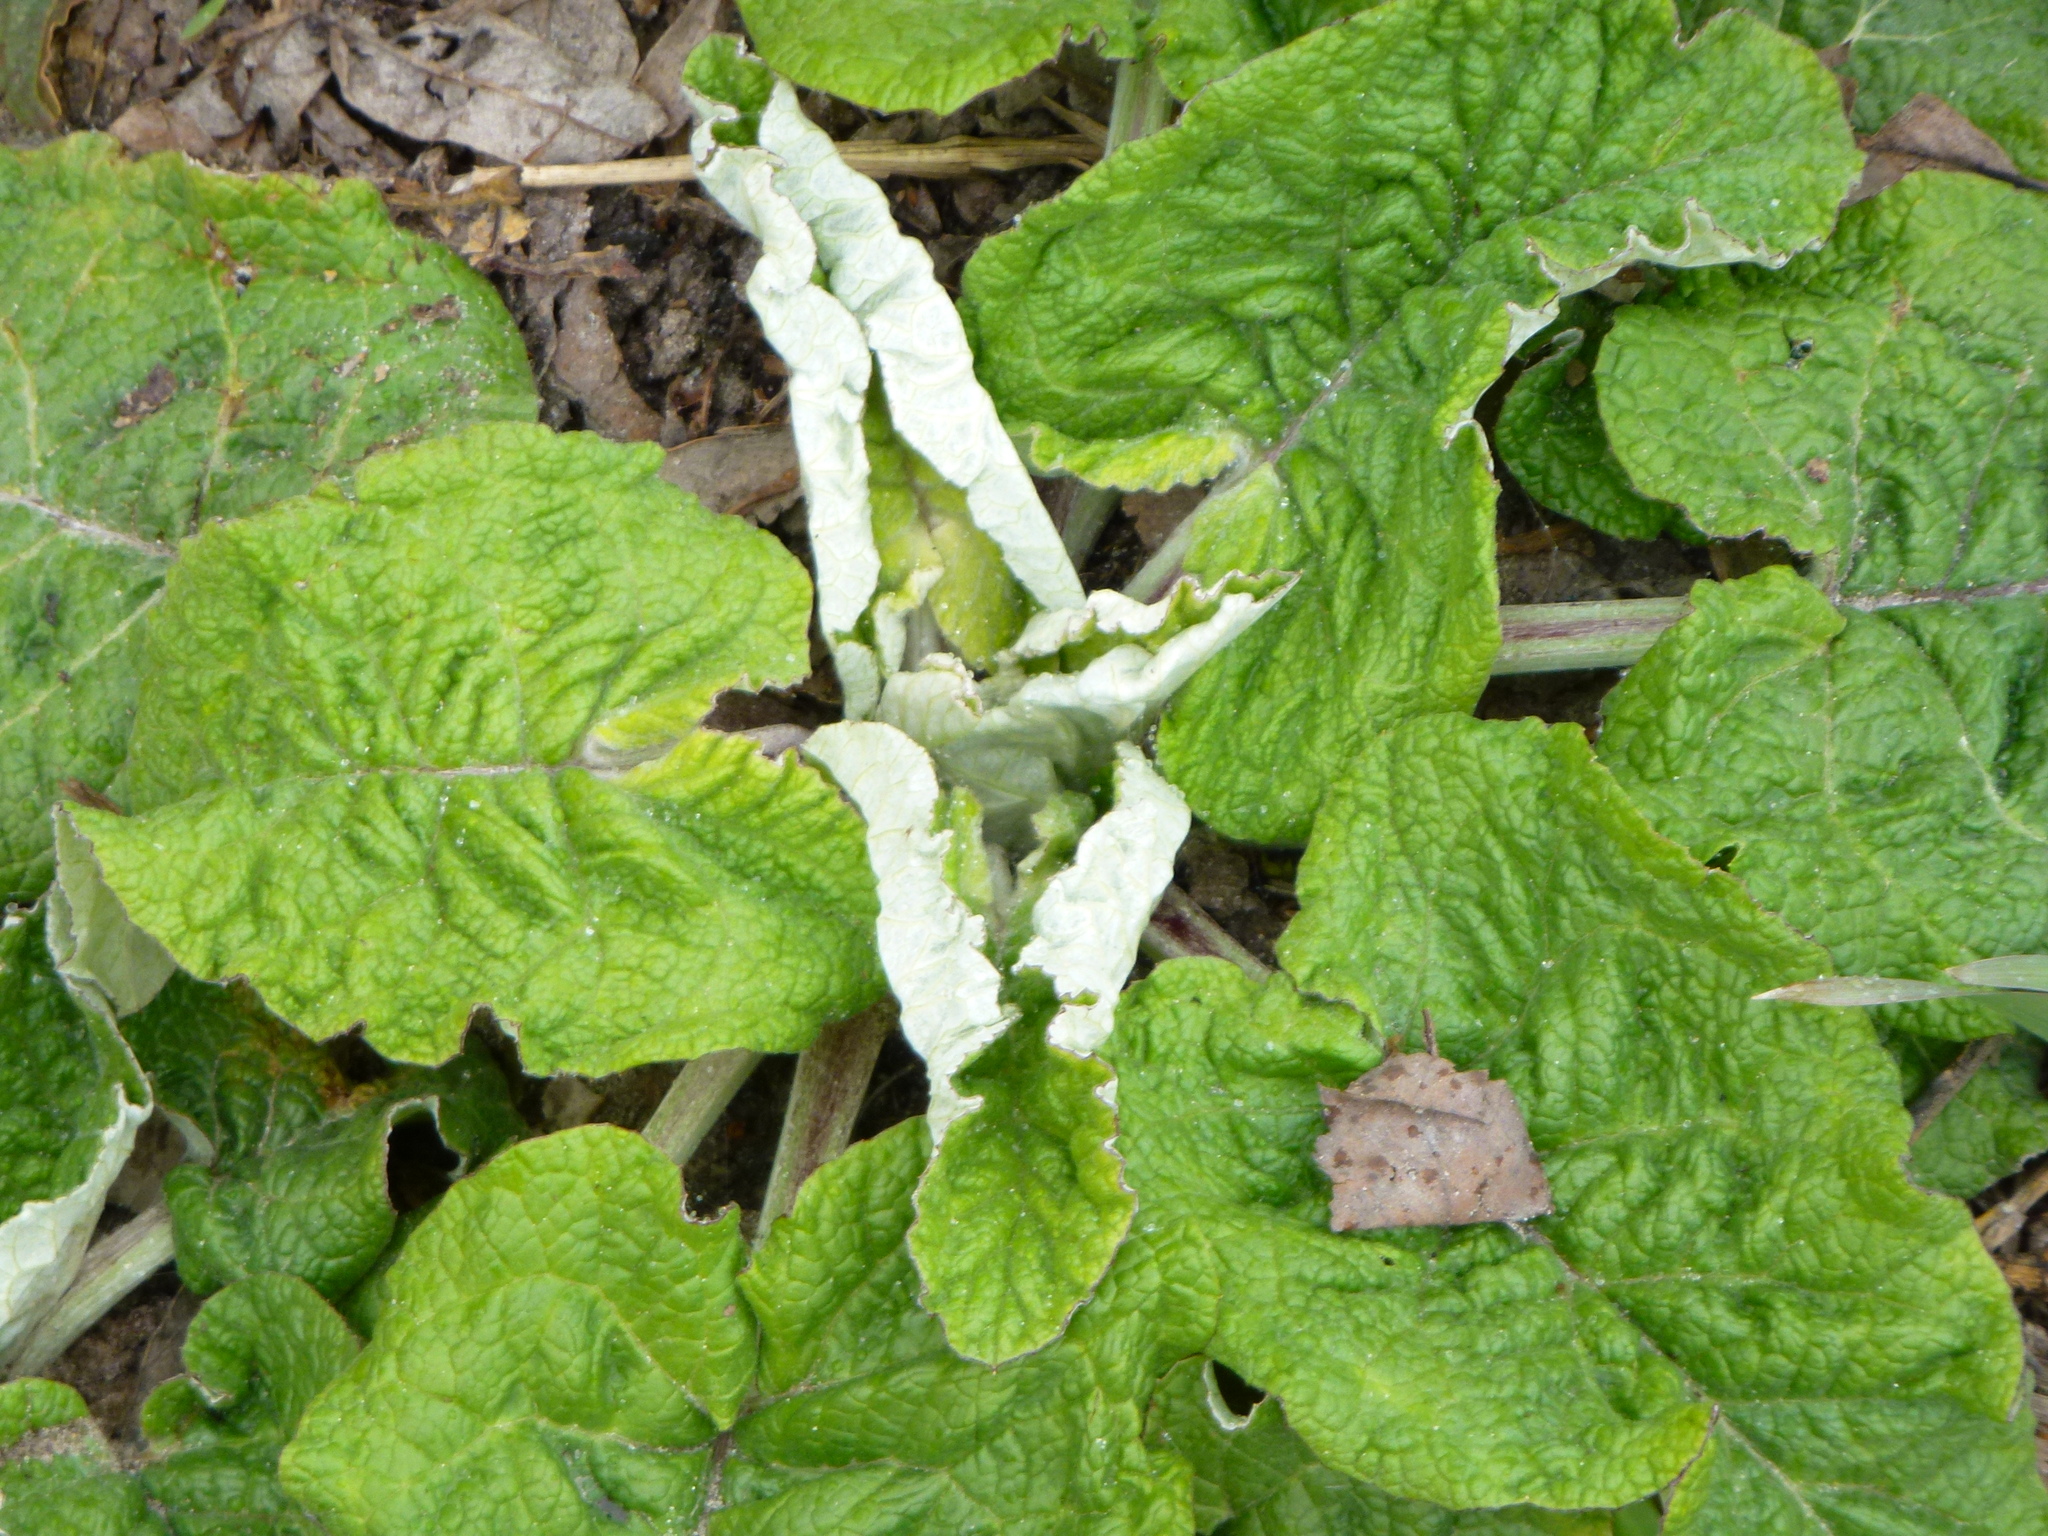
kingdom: Plantae
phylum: Tracheophyta
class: Magnoliopsida
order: Asterales
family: Asteraceae
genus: Arctium
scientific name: Arctium tomentosum
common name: Woolly burdock
